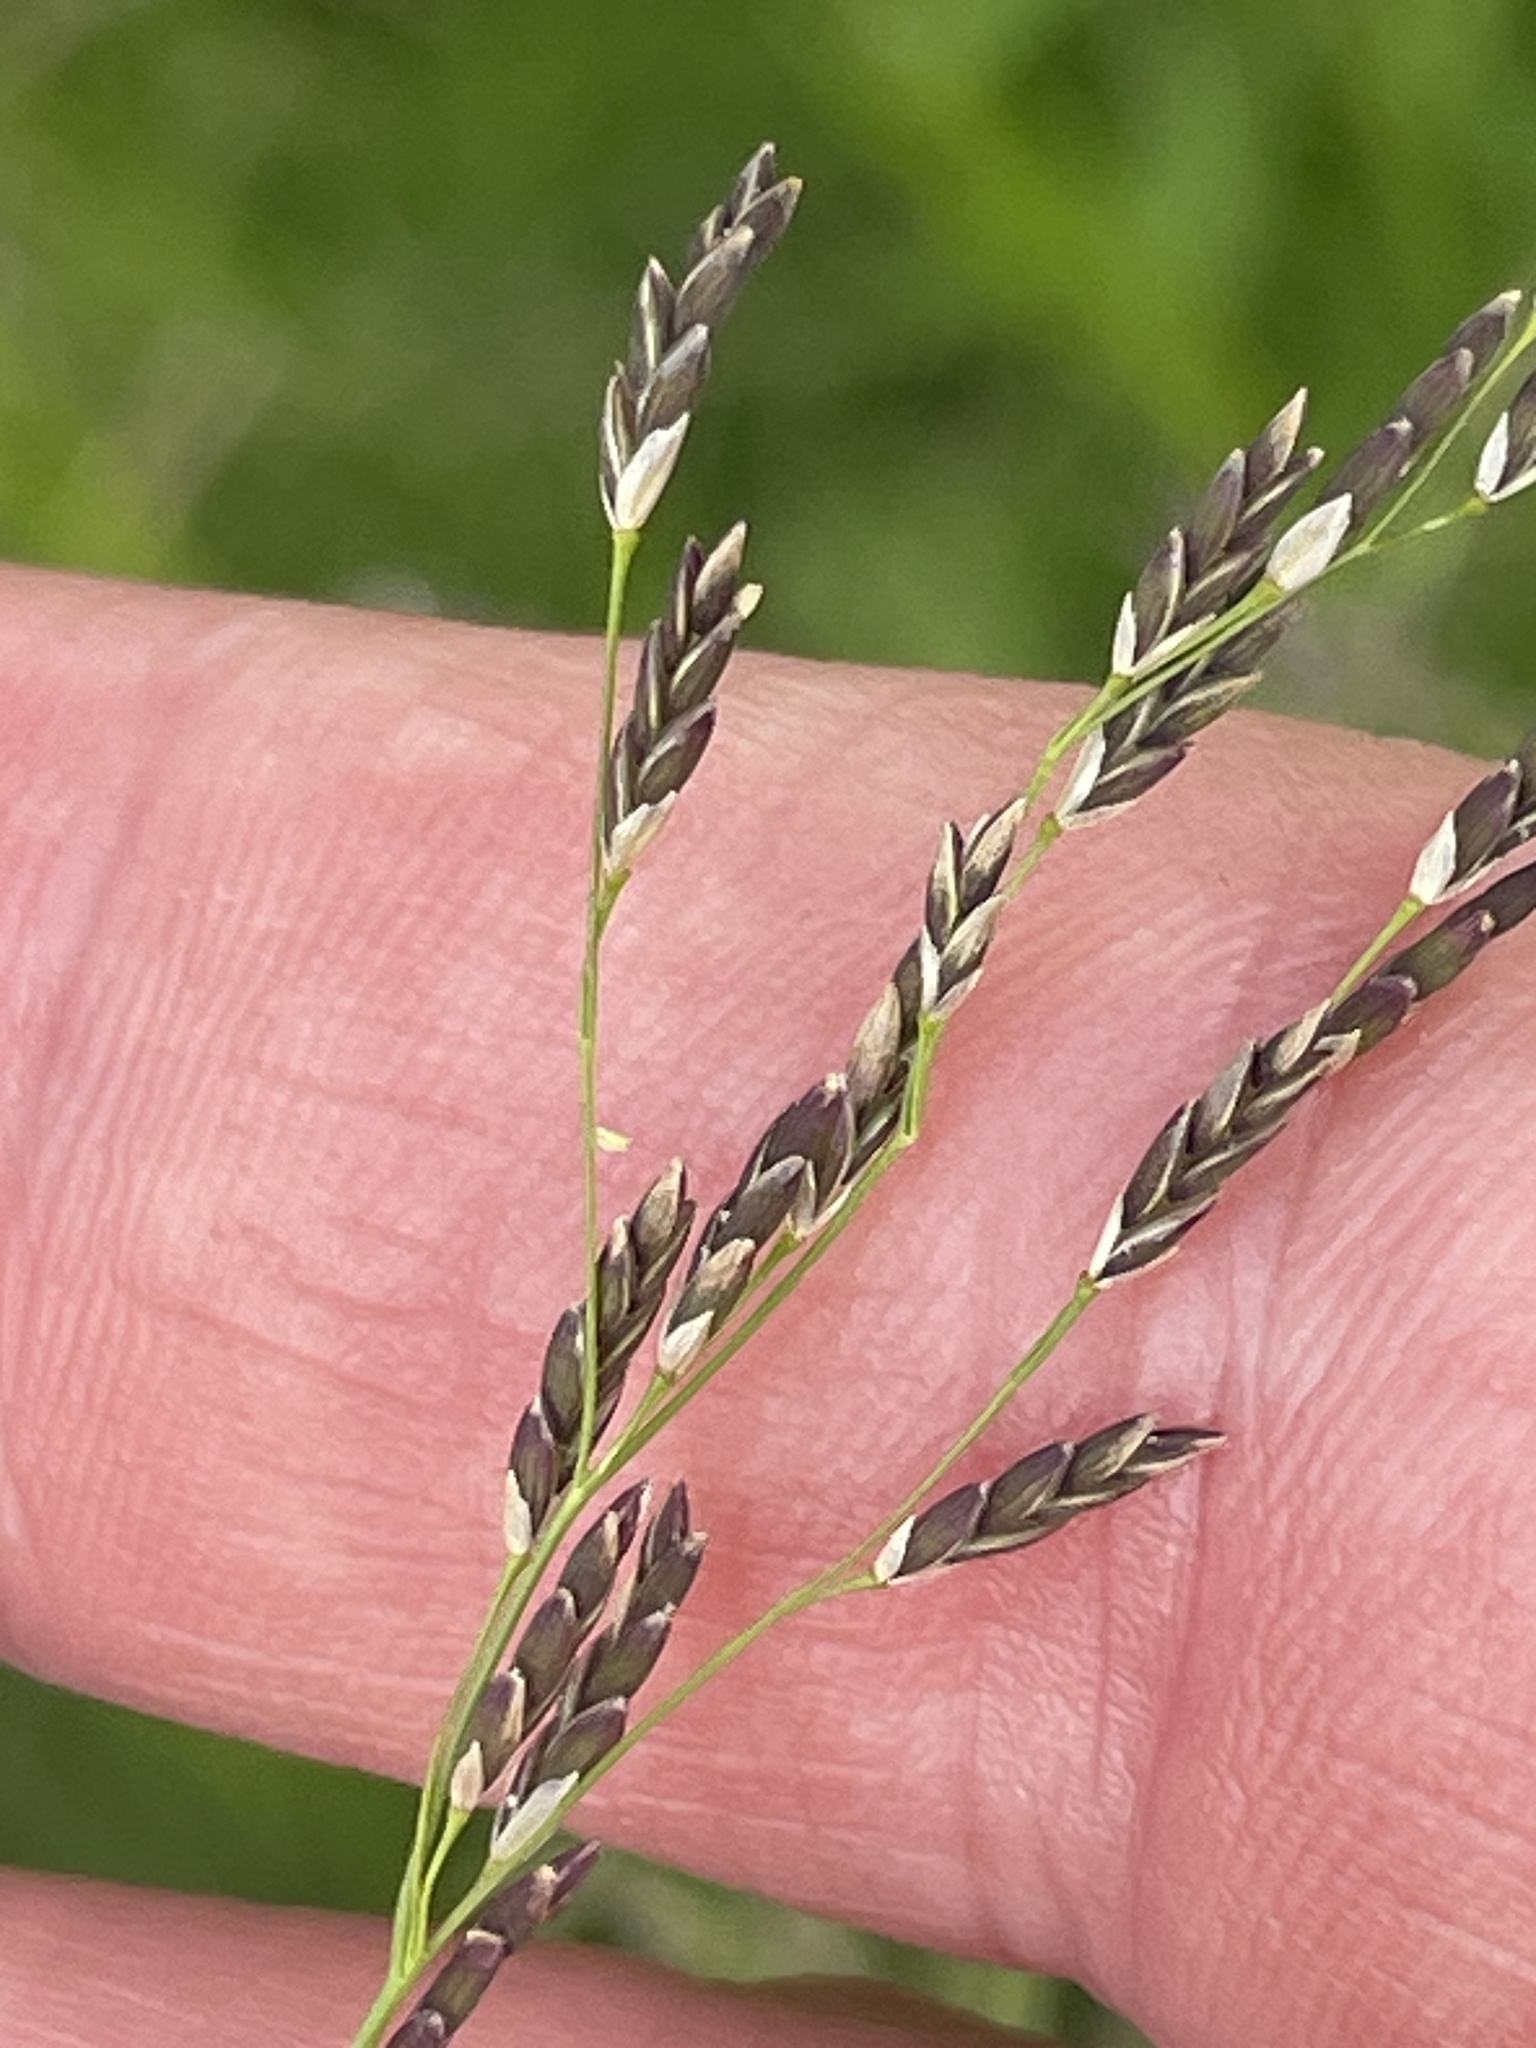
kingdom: Plantae
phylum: Tracheophyta
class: Liliopsida
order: Poales
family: Poaceae
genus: Glyceria
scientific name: Glyceria grandis
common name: American glyceria
